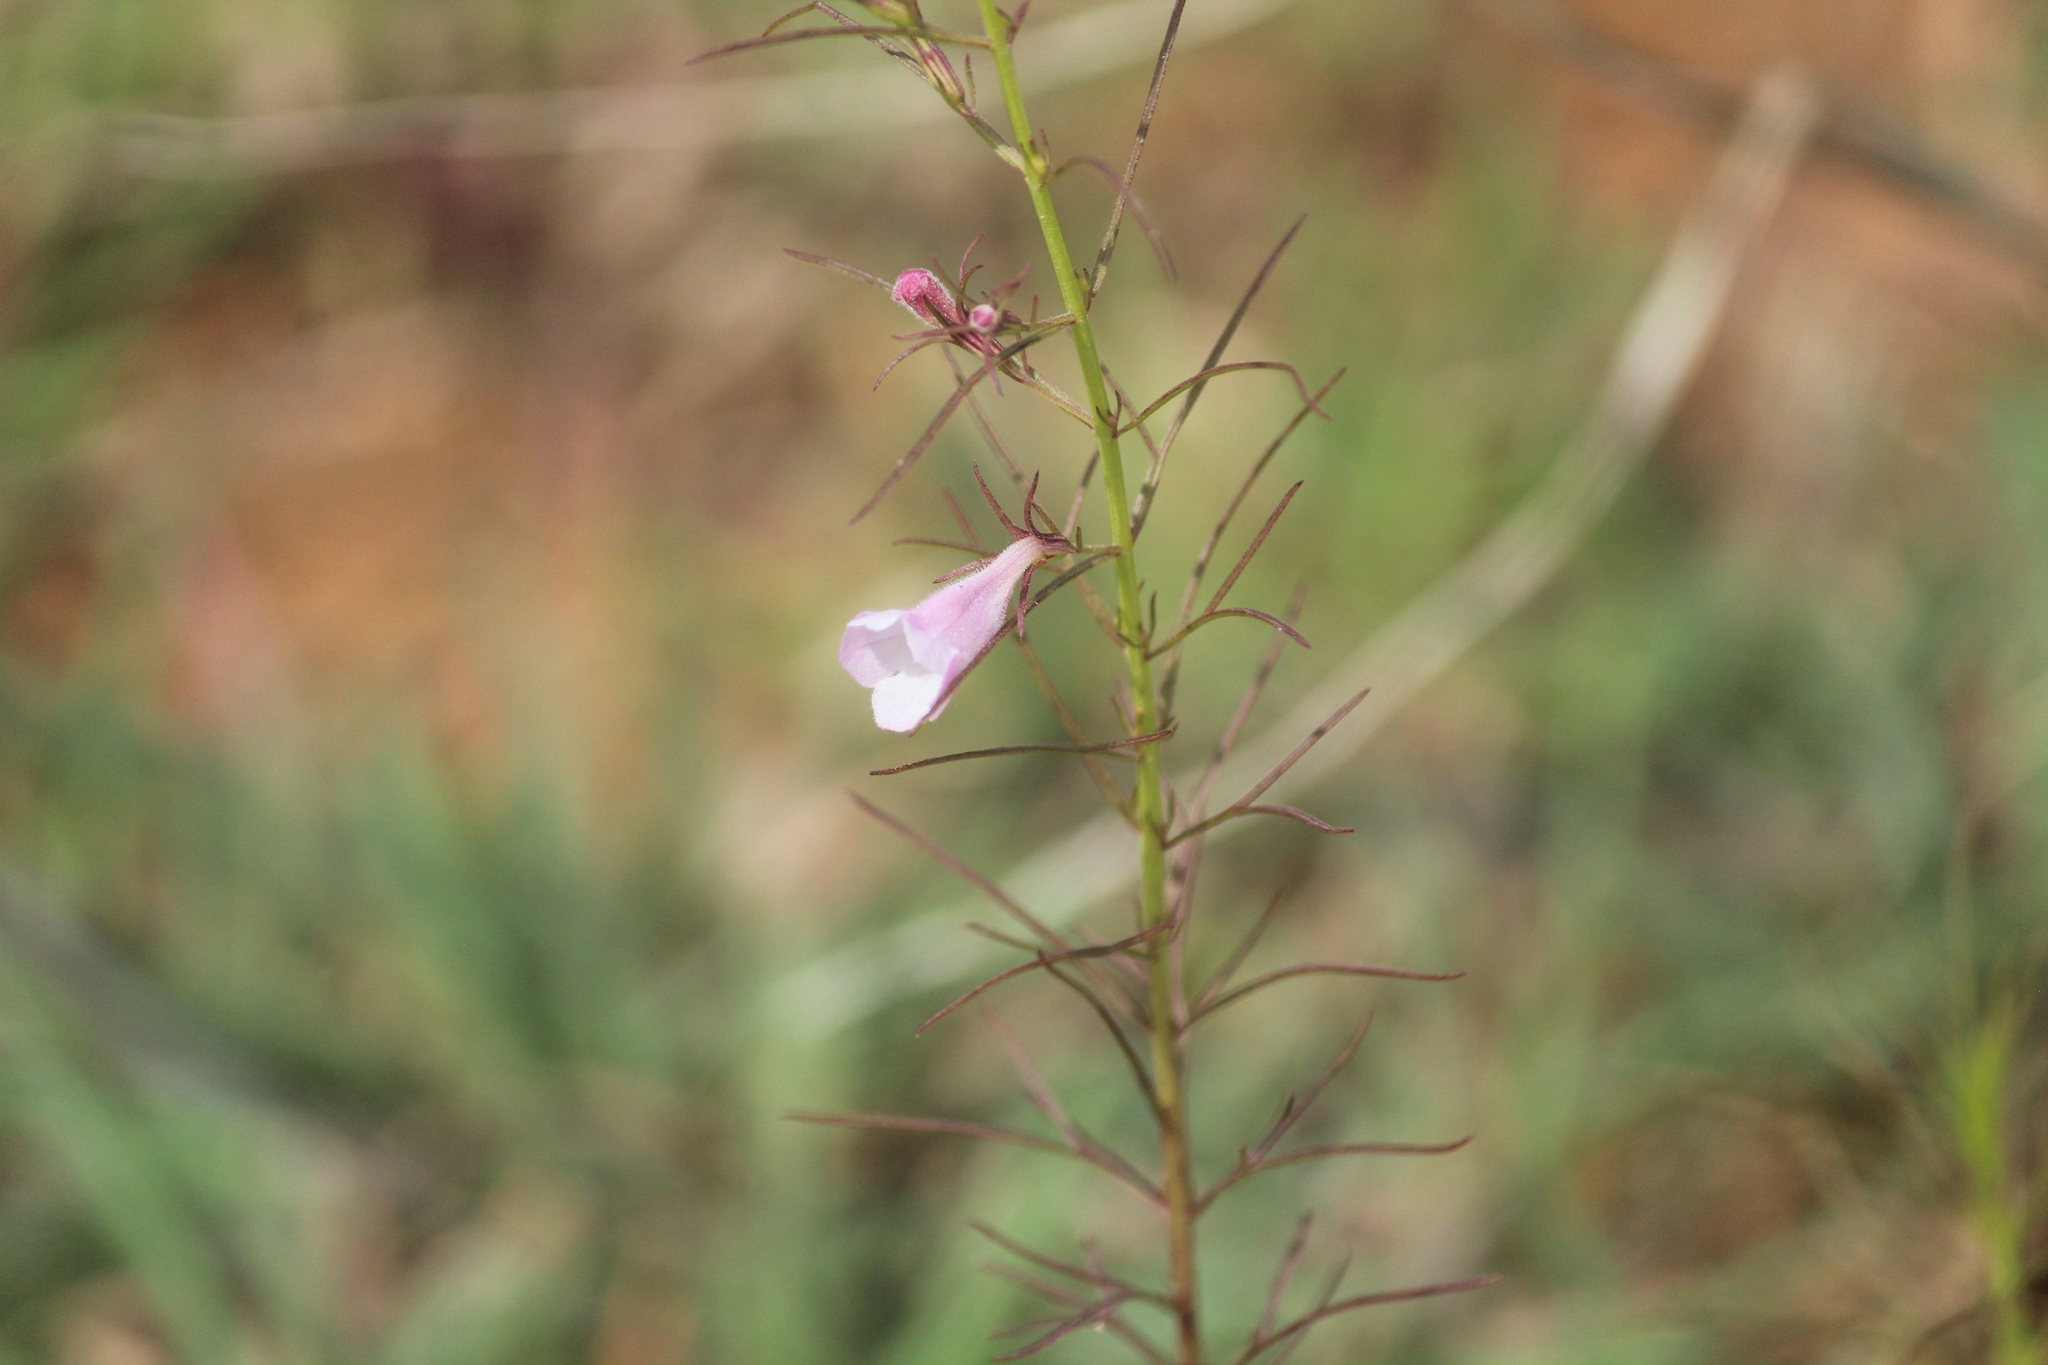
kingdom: Plantae
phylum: Tracheophyta
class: Magnoliopsida
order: Lamiales
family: Orobanchaceae
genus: Parasopubia
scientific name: Parasopubia delphiniifolia
